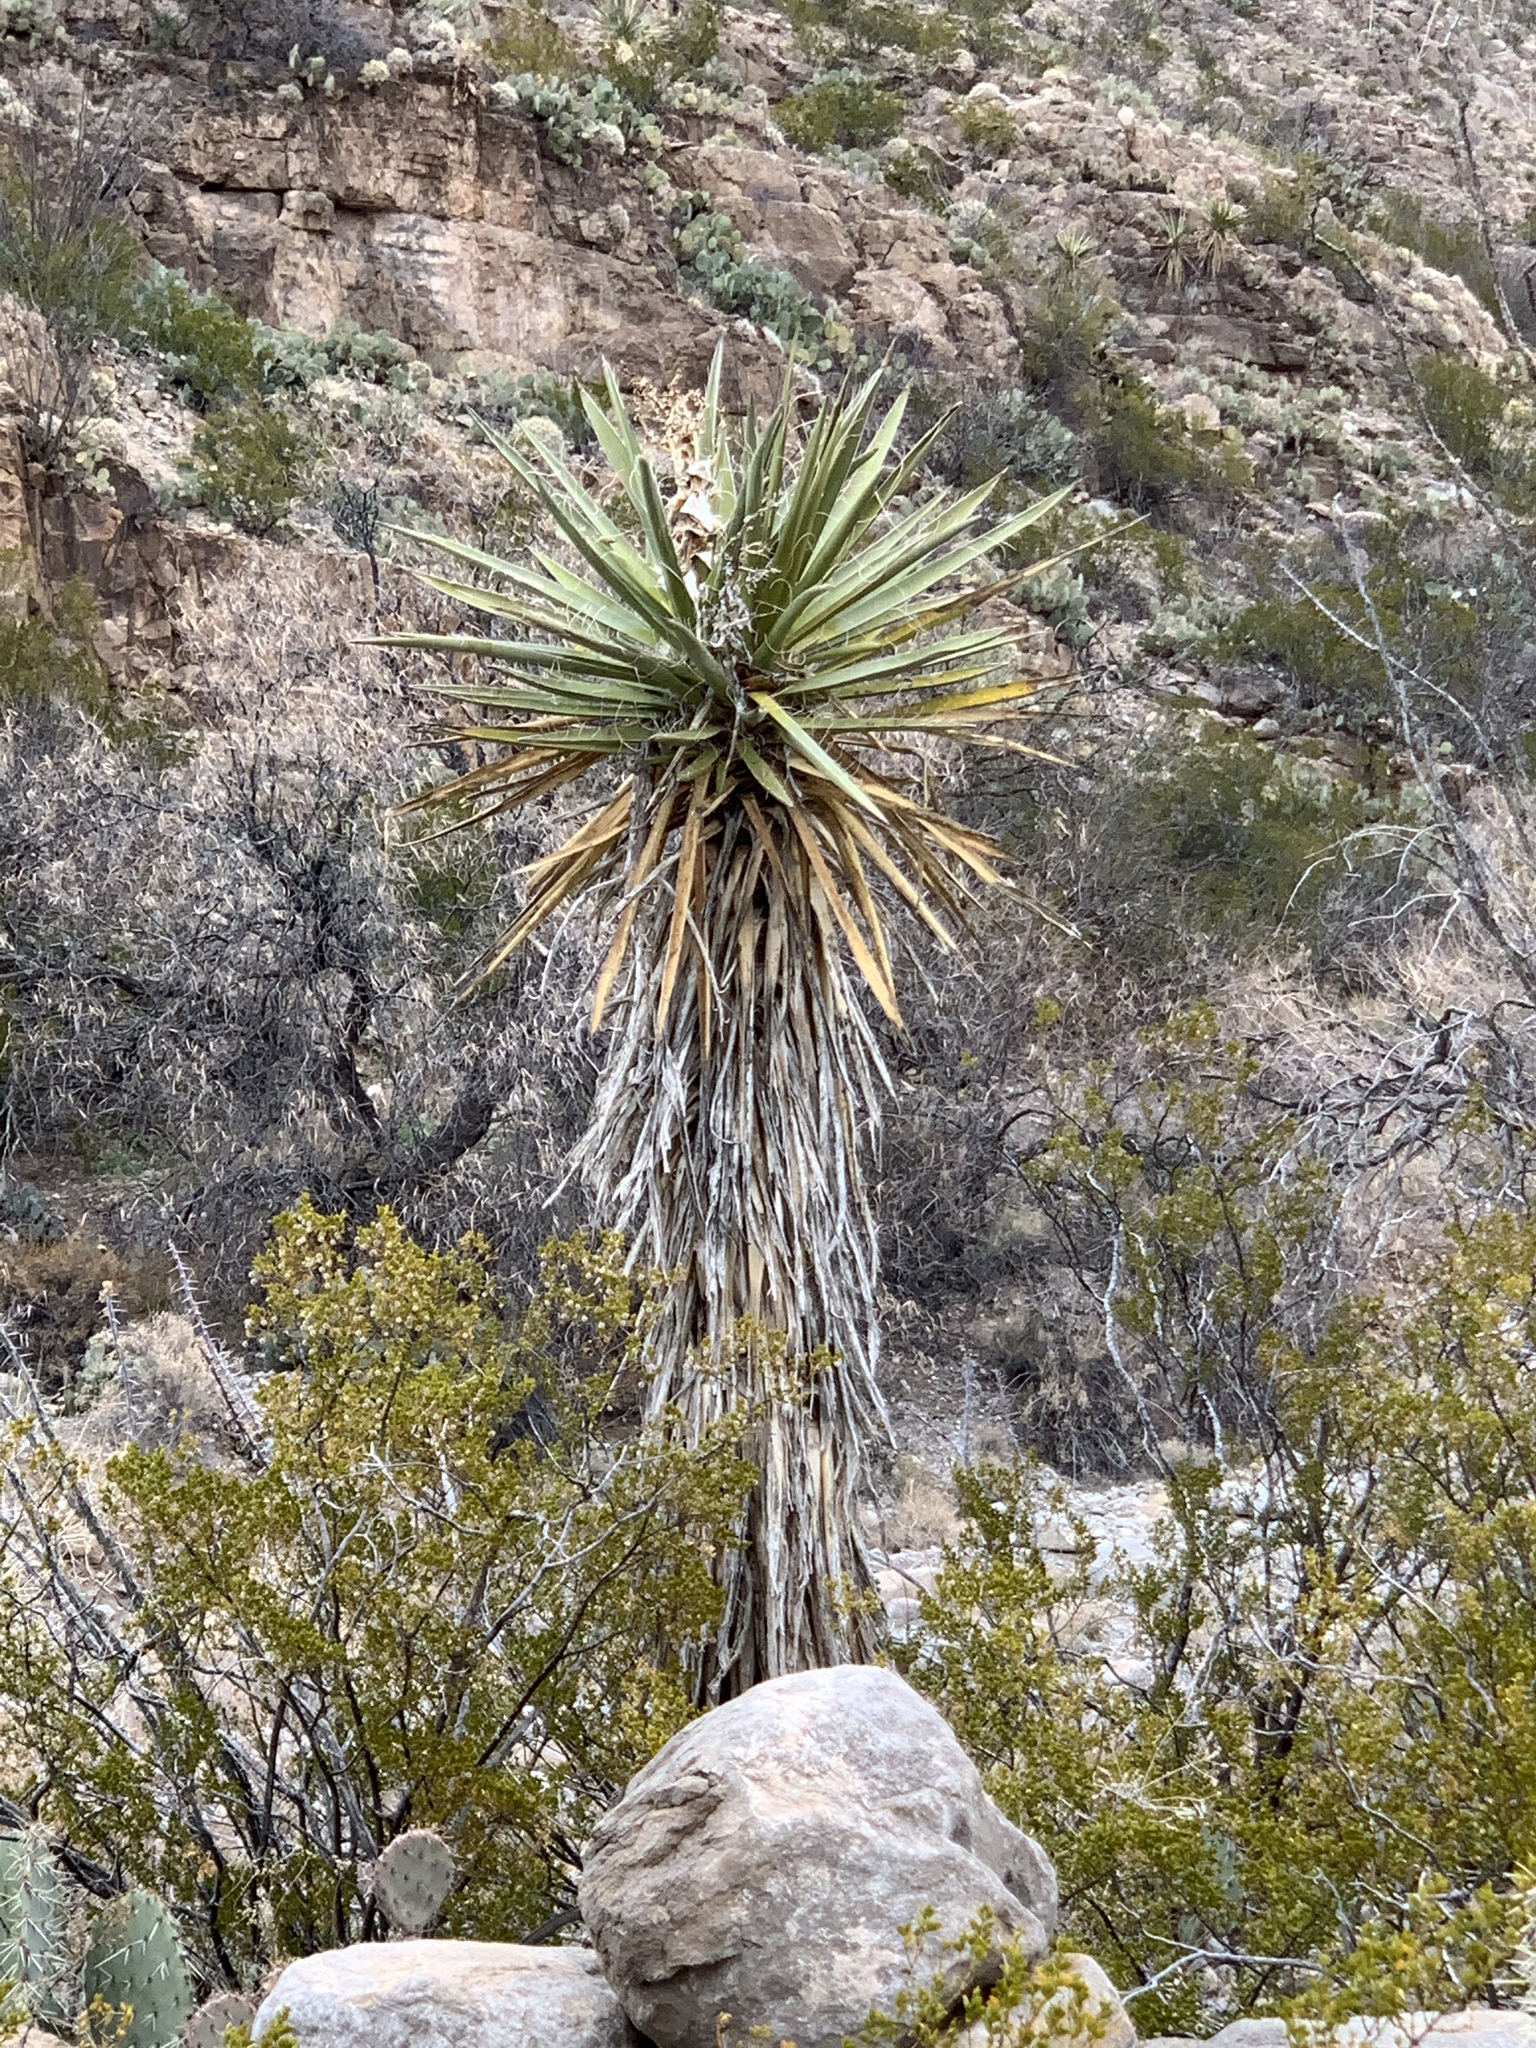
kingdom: Plantae
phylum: Tracheophyta
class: Liliopsida
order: Asparagales
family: Asparagaceae
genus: Yucca
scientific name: Yucca treculiana
